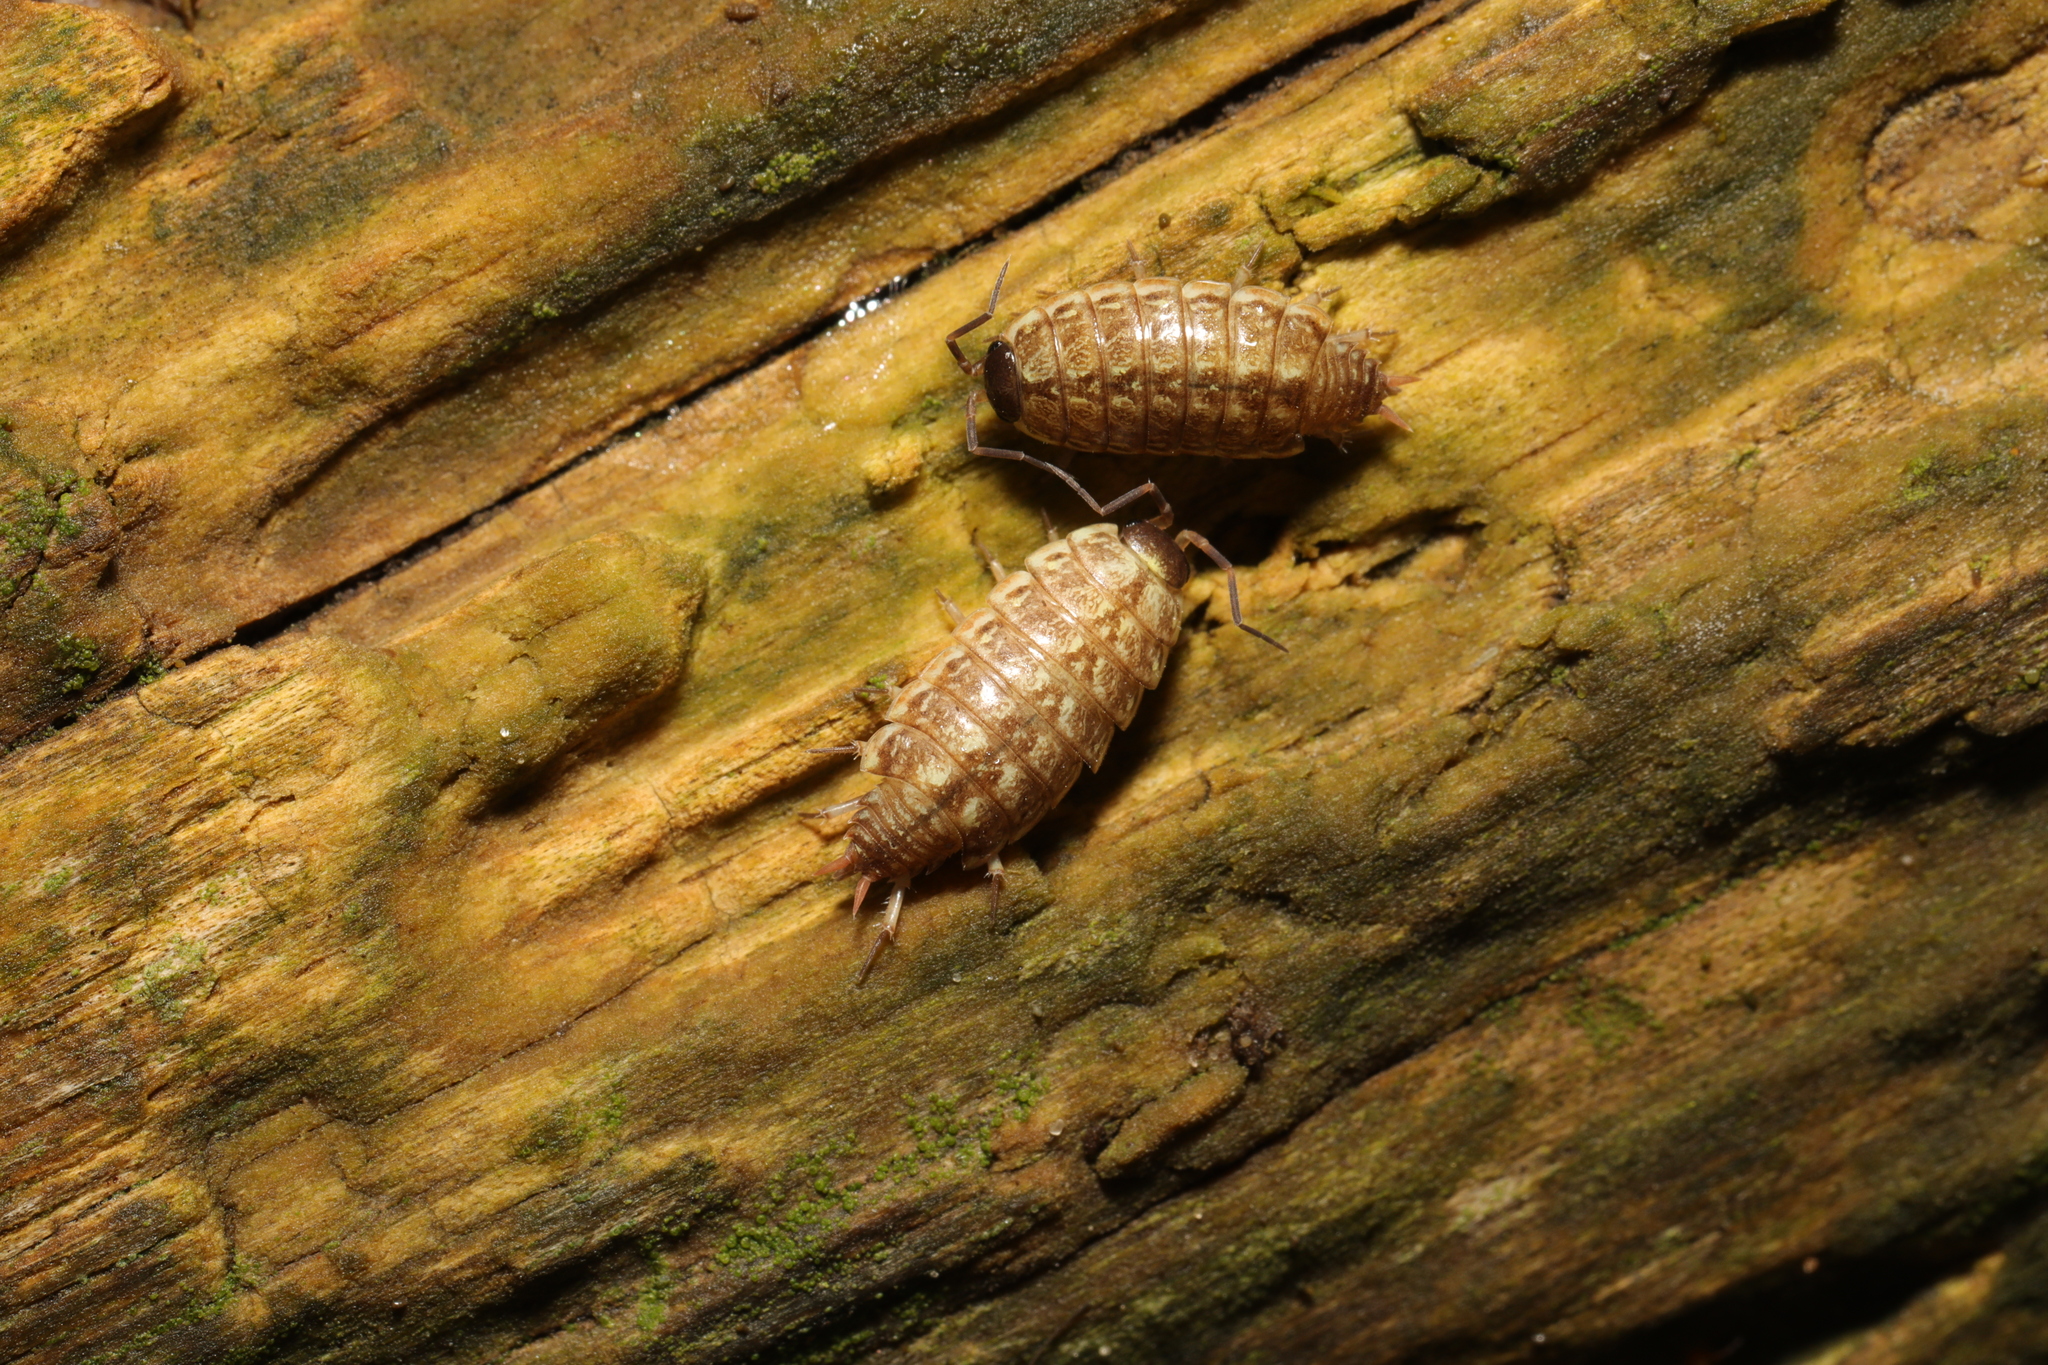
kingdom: Animalia
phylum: Arthropoda
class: Malacostraca
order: Isopoda
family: Philosciidae
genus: Philoscia
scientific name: Philoscia muscorum
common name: Common striped woodlouse
